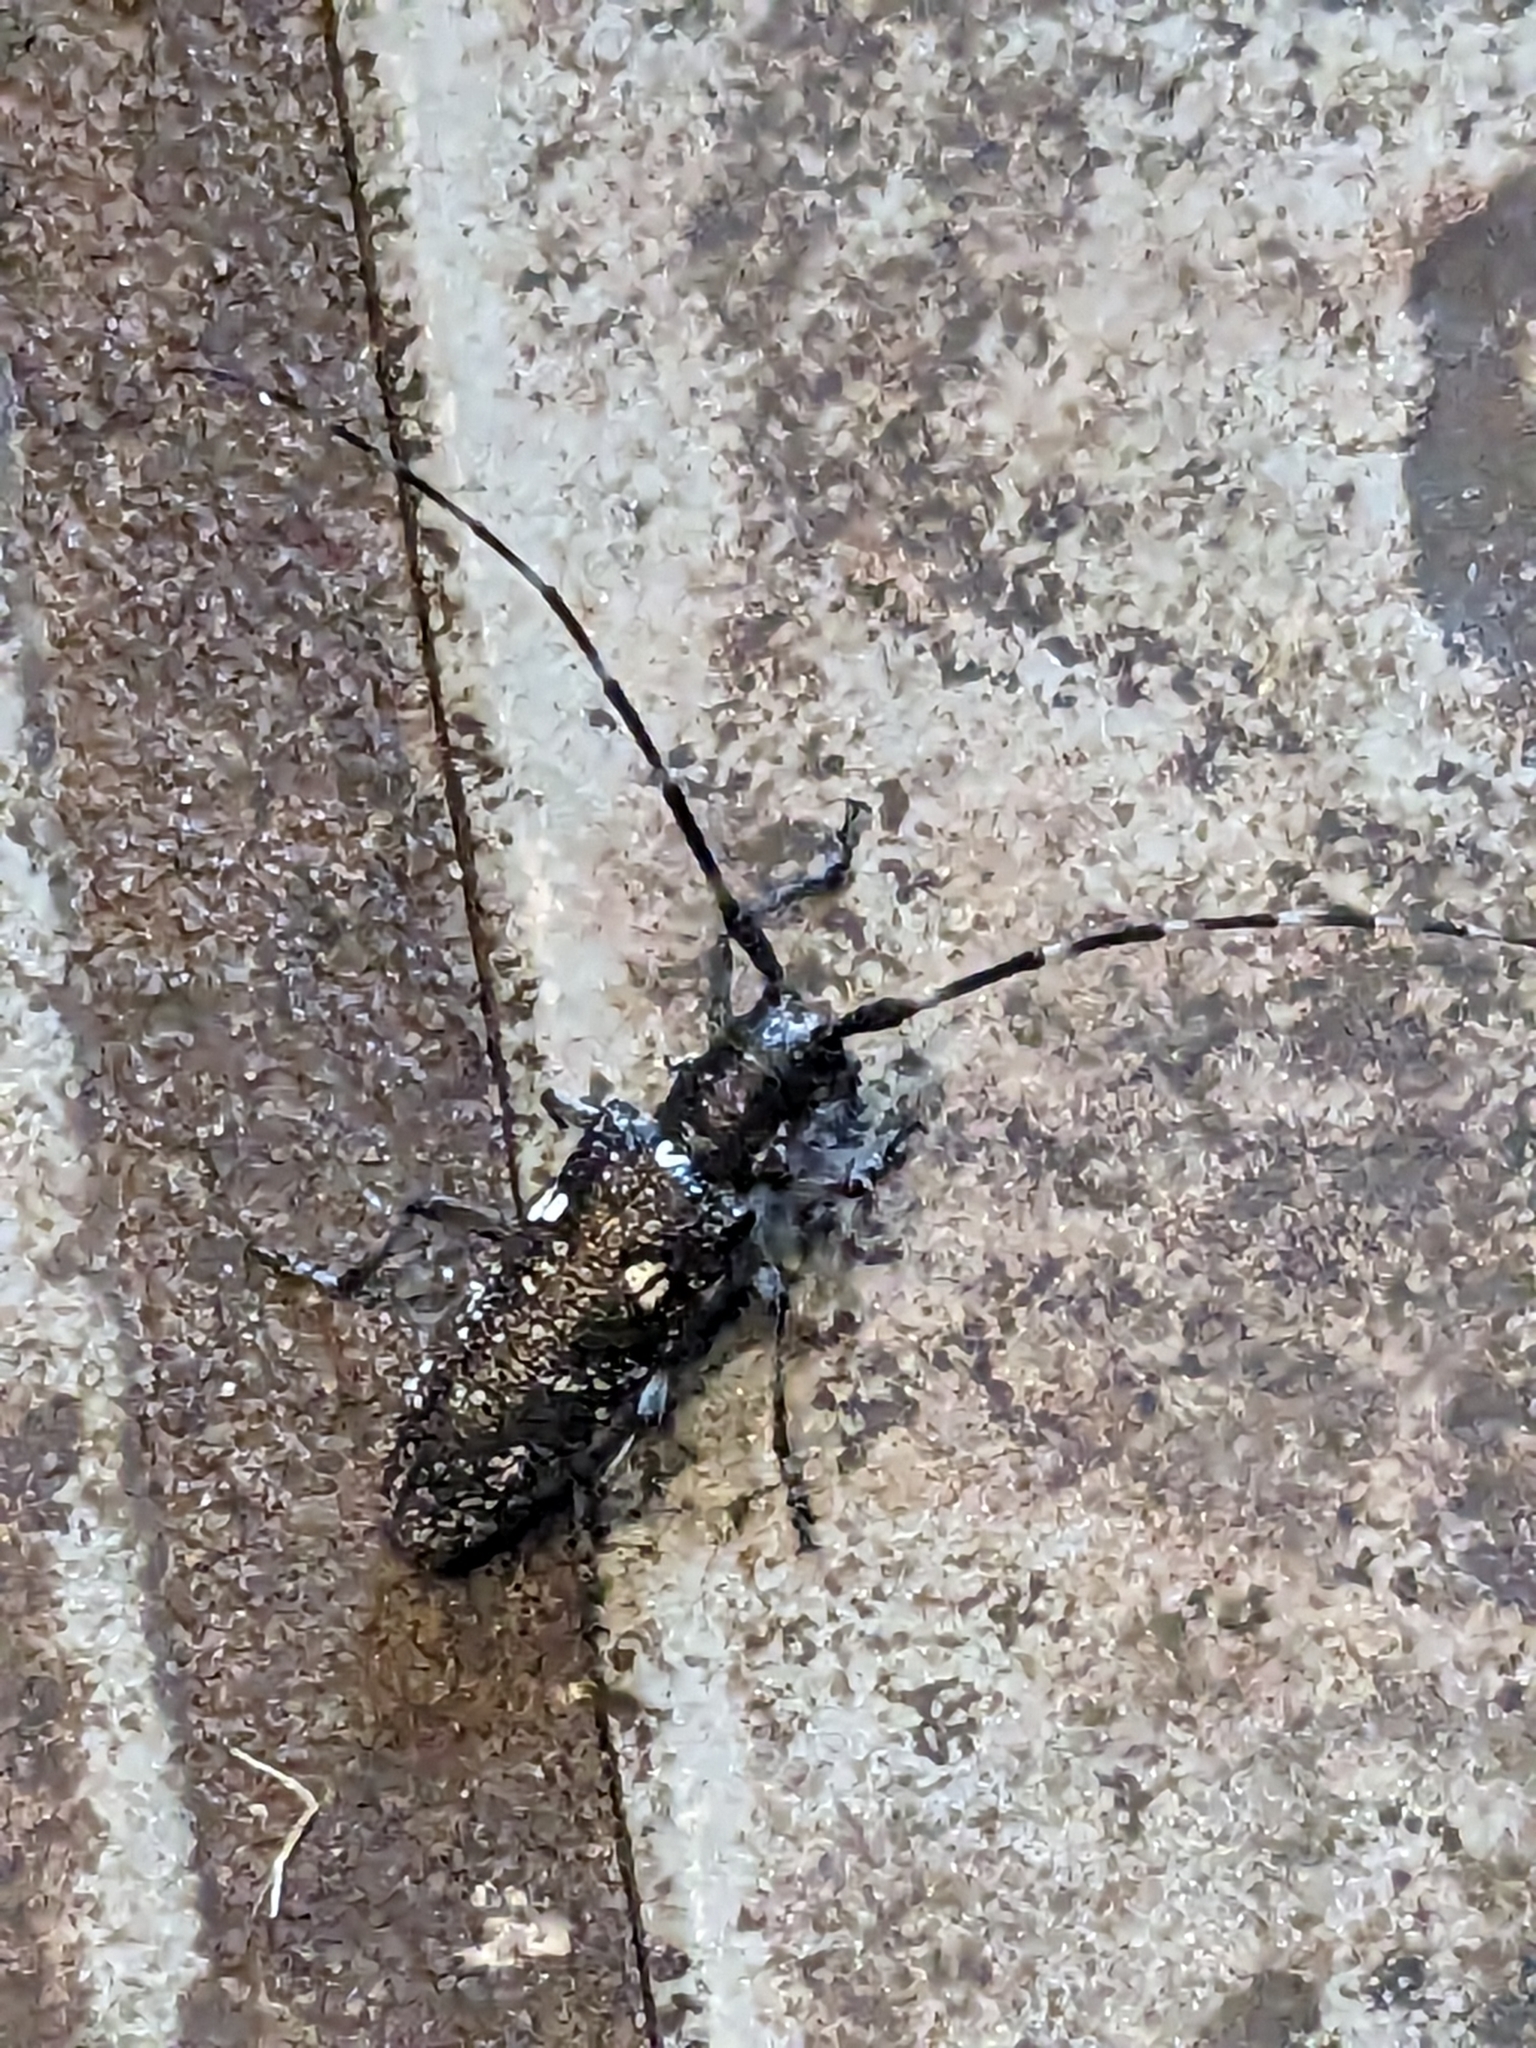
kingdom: Animalia
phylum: Arthropoda
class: Insecta
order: Coleoptera
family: Cerambycidae
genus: Monochamus
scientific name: Monochamus scutellatus
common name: White-spotted sawyer beetle
